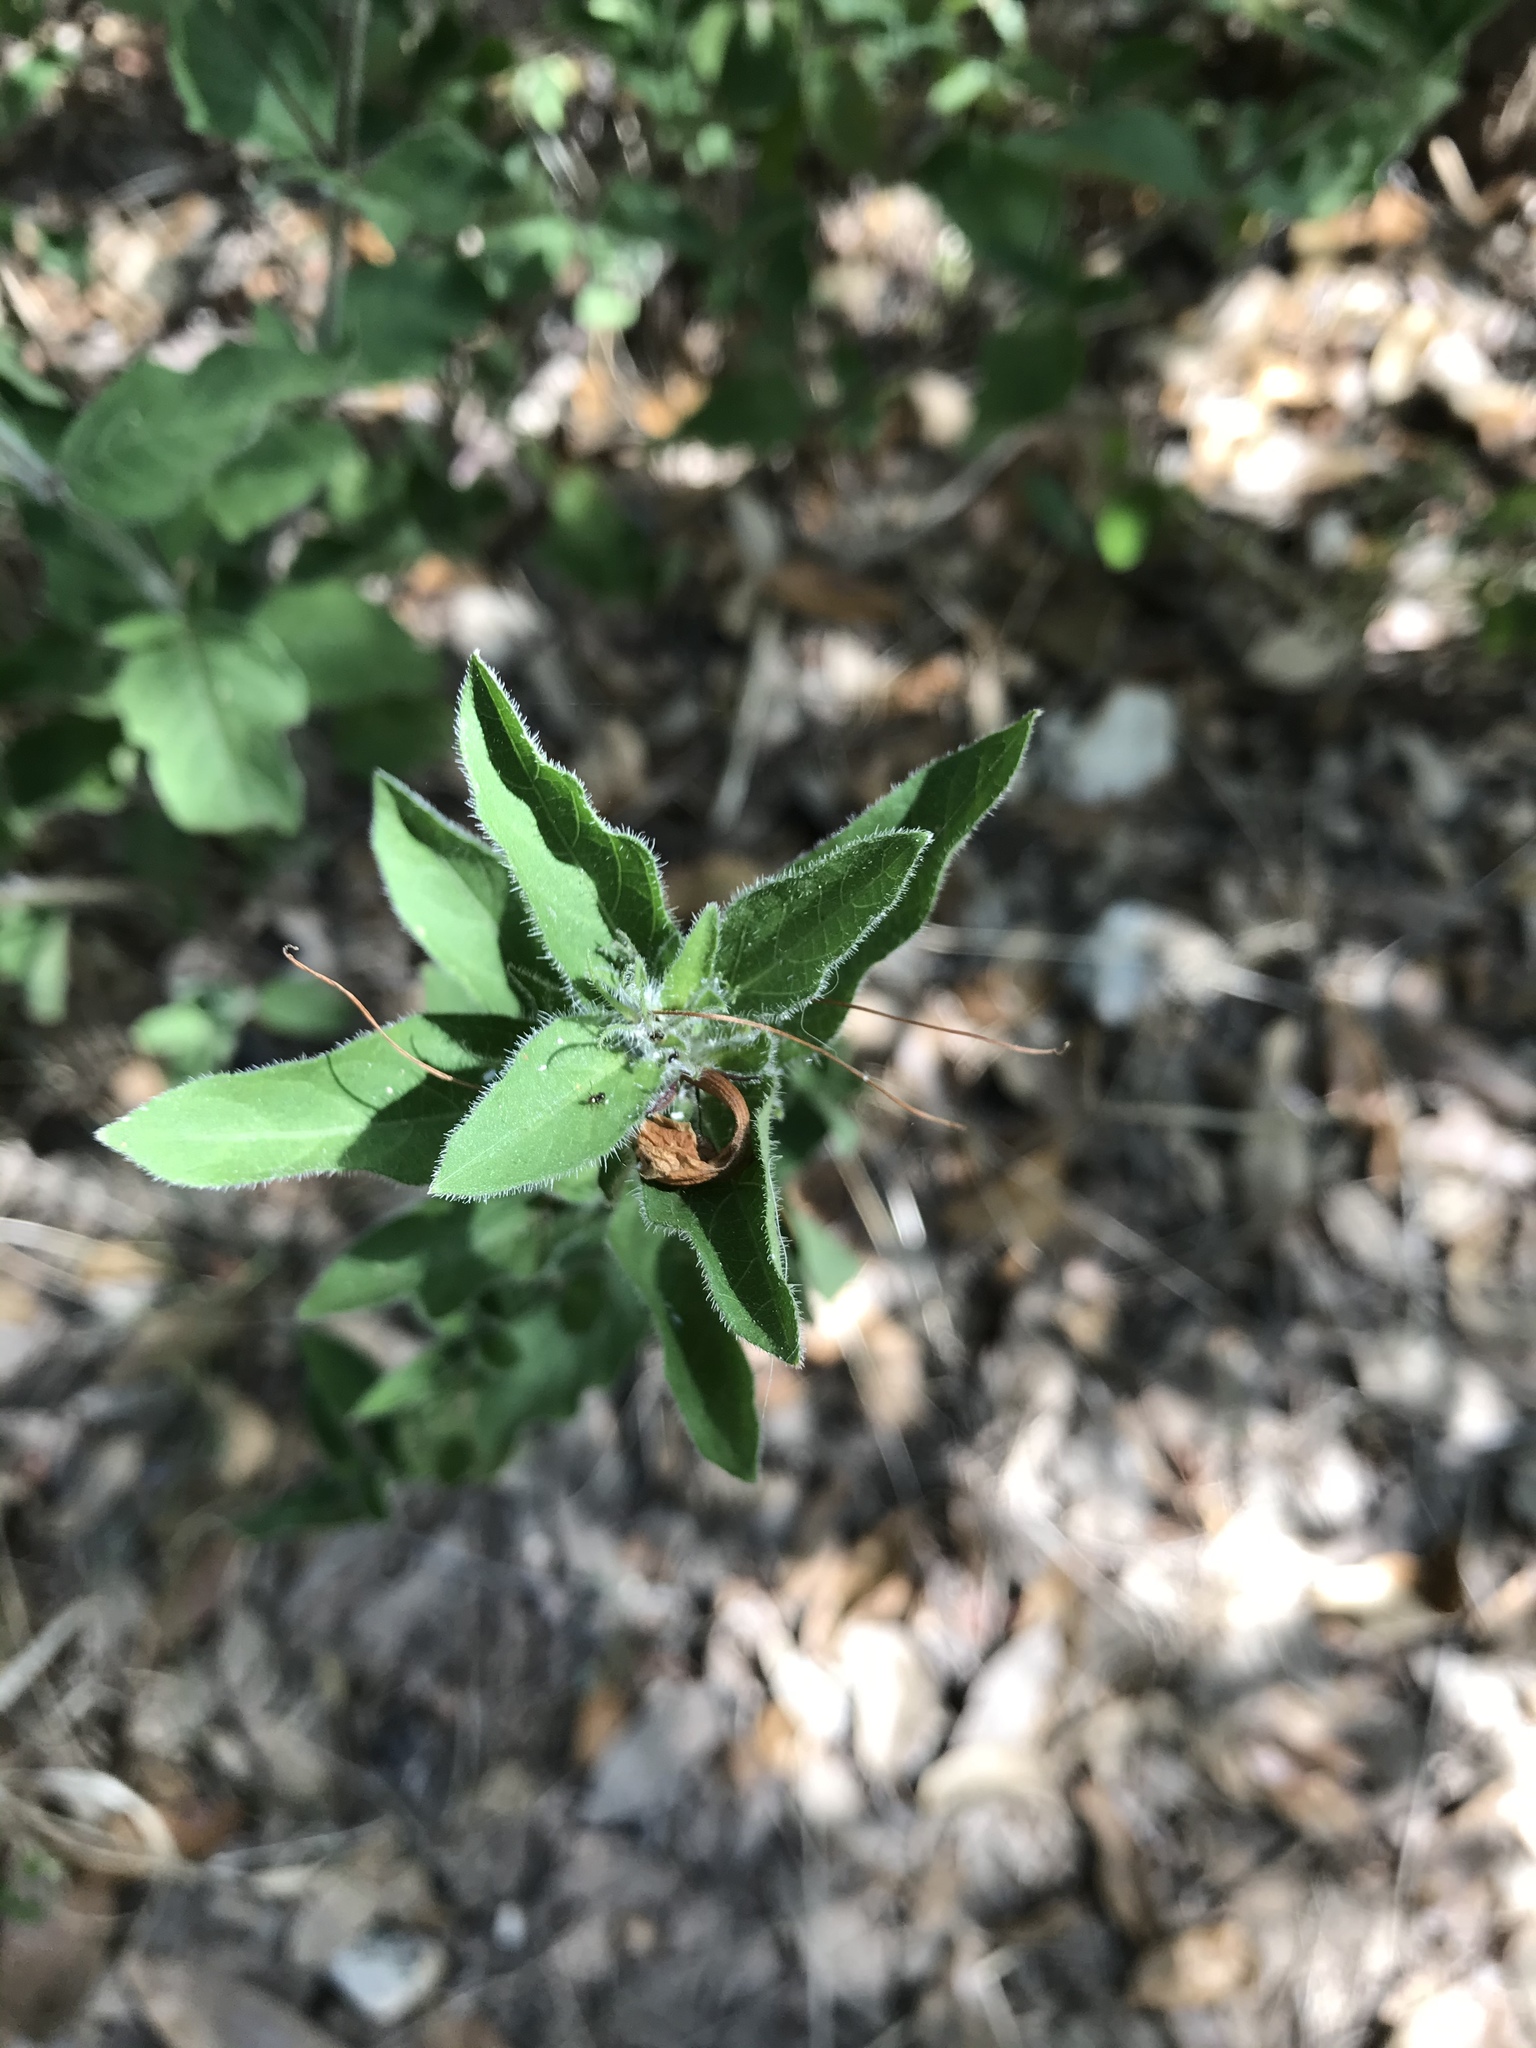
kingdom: Plantae
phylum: Tracheophyta
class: Magnoliopsida
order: Lamiales
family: Acanthaceae
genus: Ruellia
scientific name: Ruellia humilis
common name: Fringe-leaf ruellia
